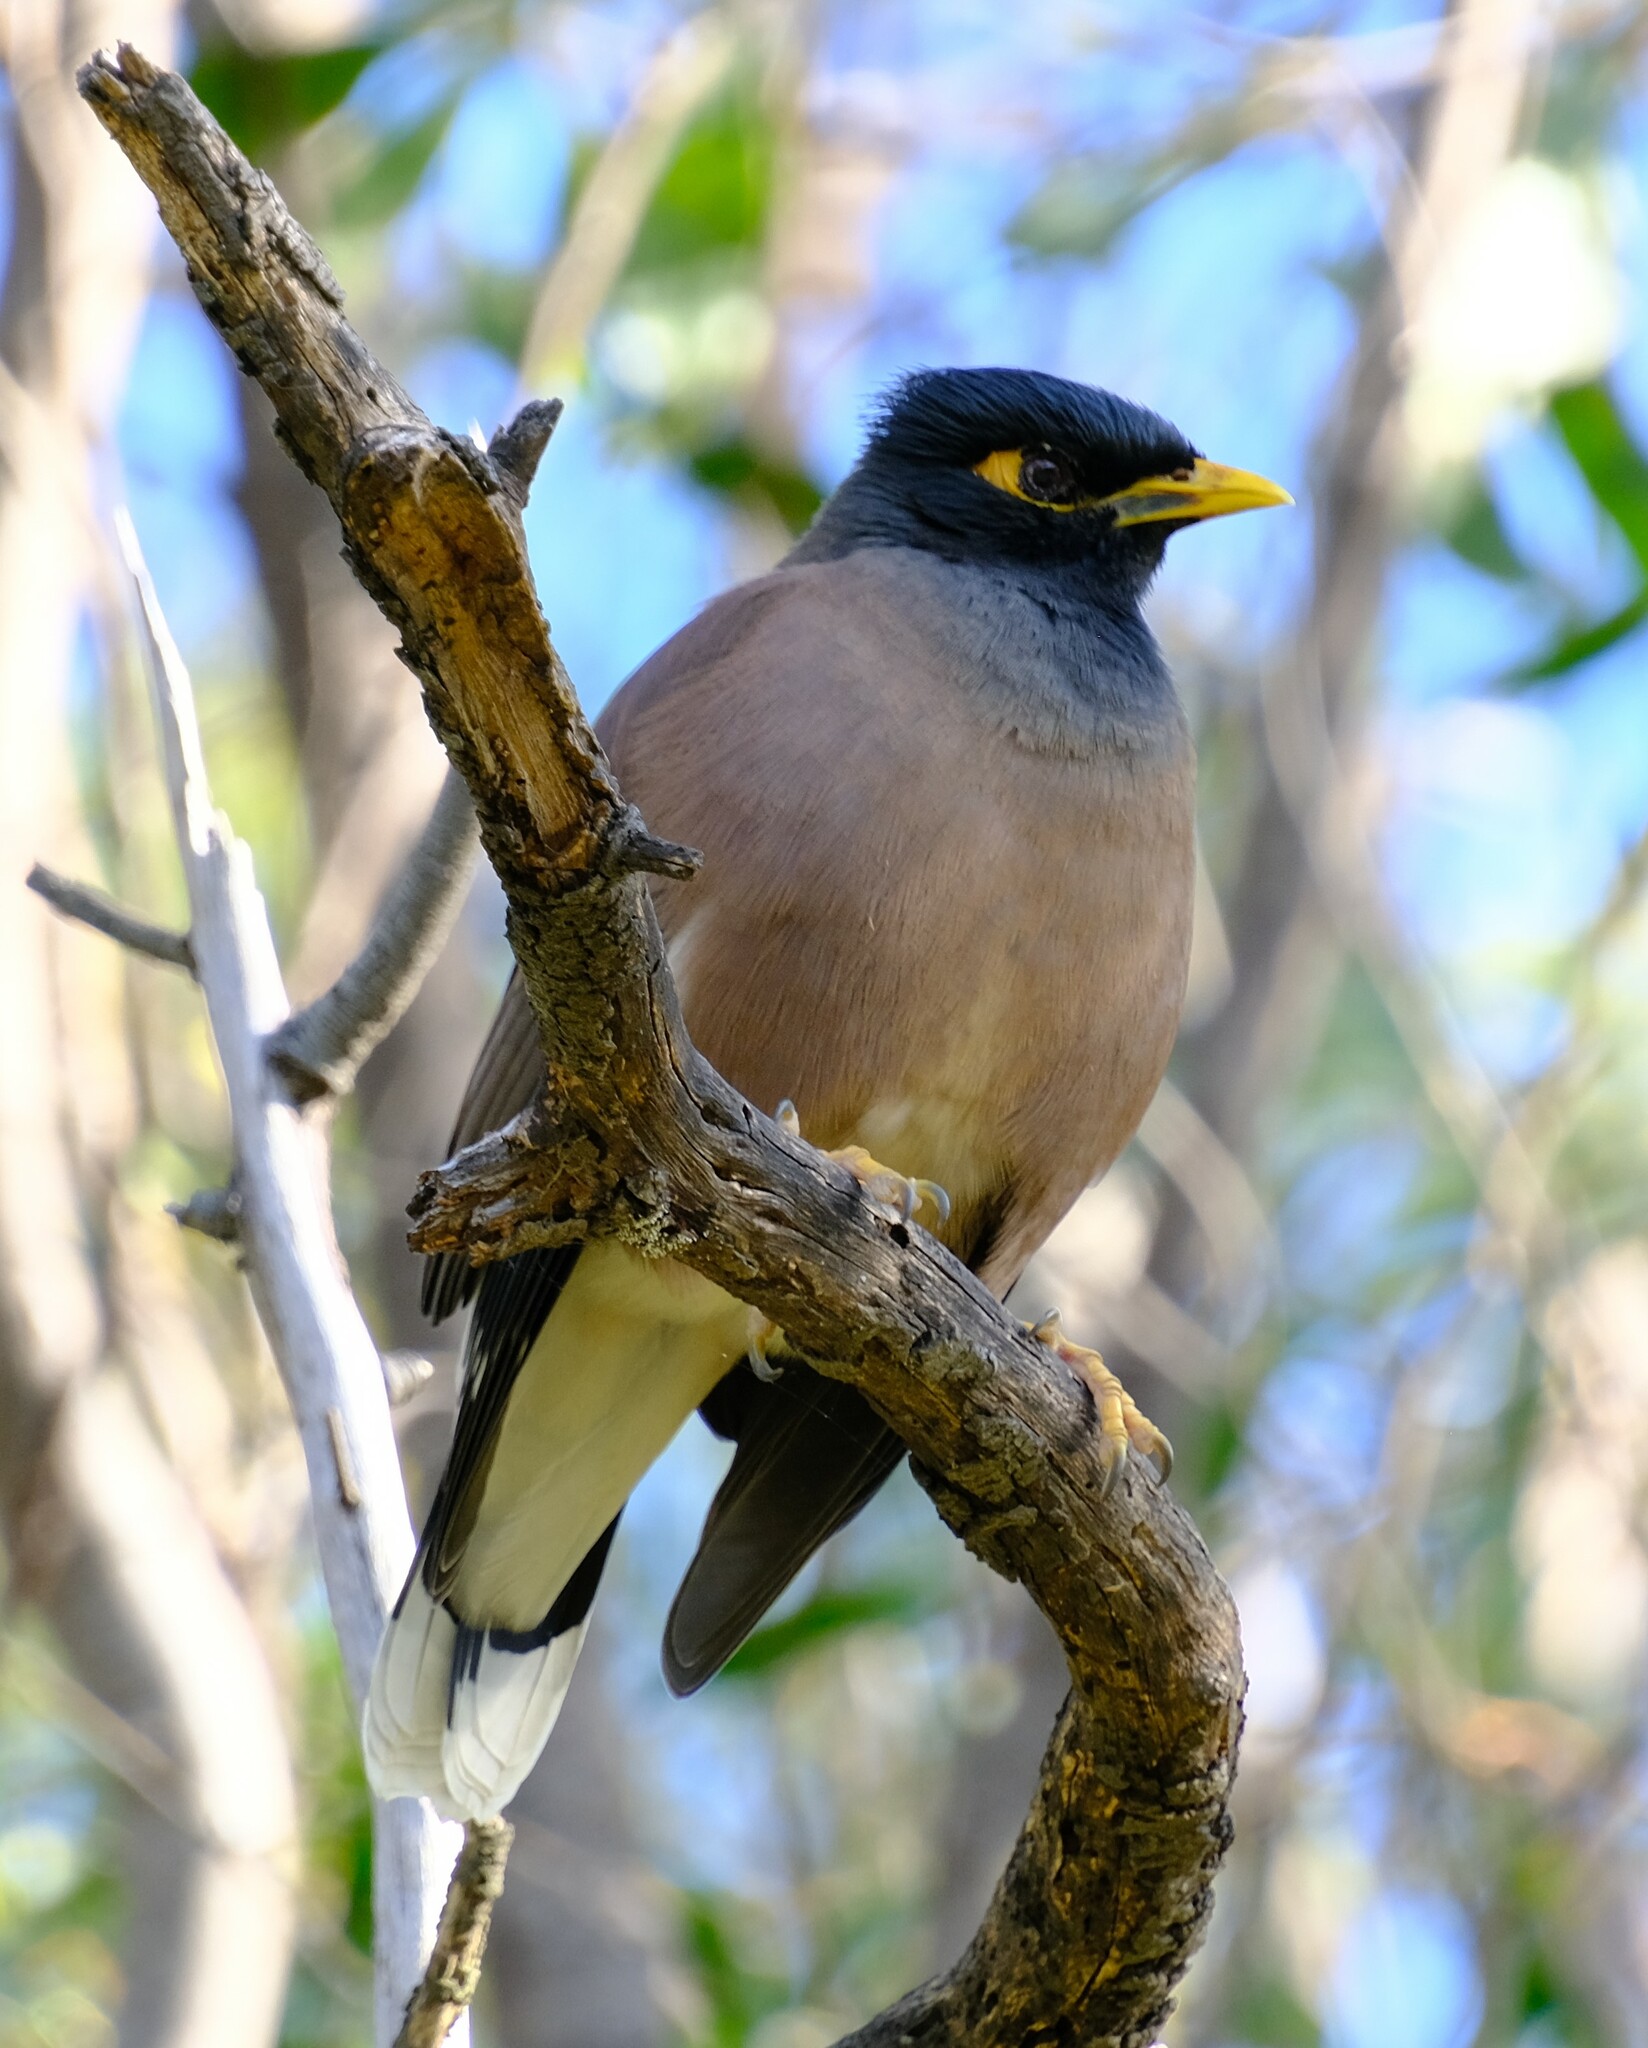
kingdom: Animalia
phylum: Chordata
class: Aves
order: Passeriformes
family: Sturnidae
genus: Acridotheres
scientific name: Acridotheres tristis
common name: Common myna
